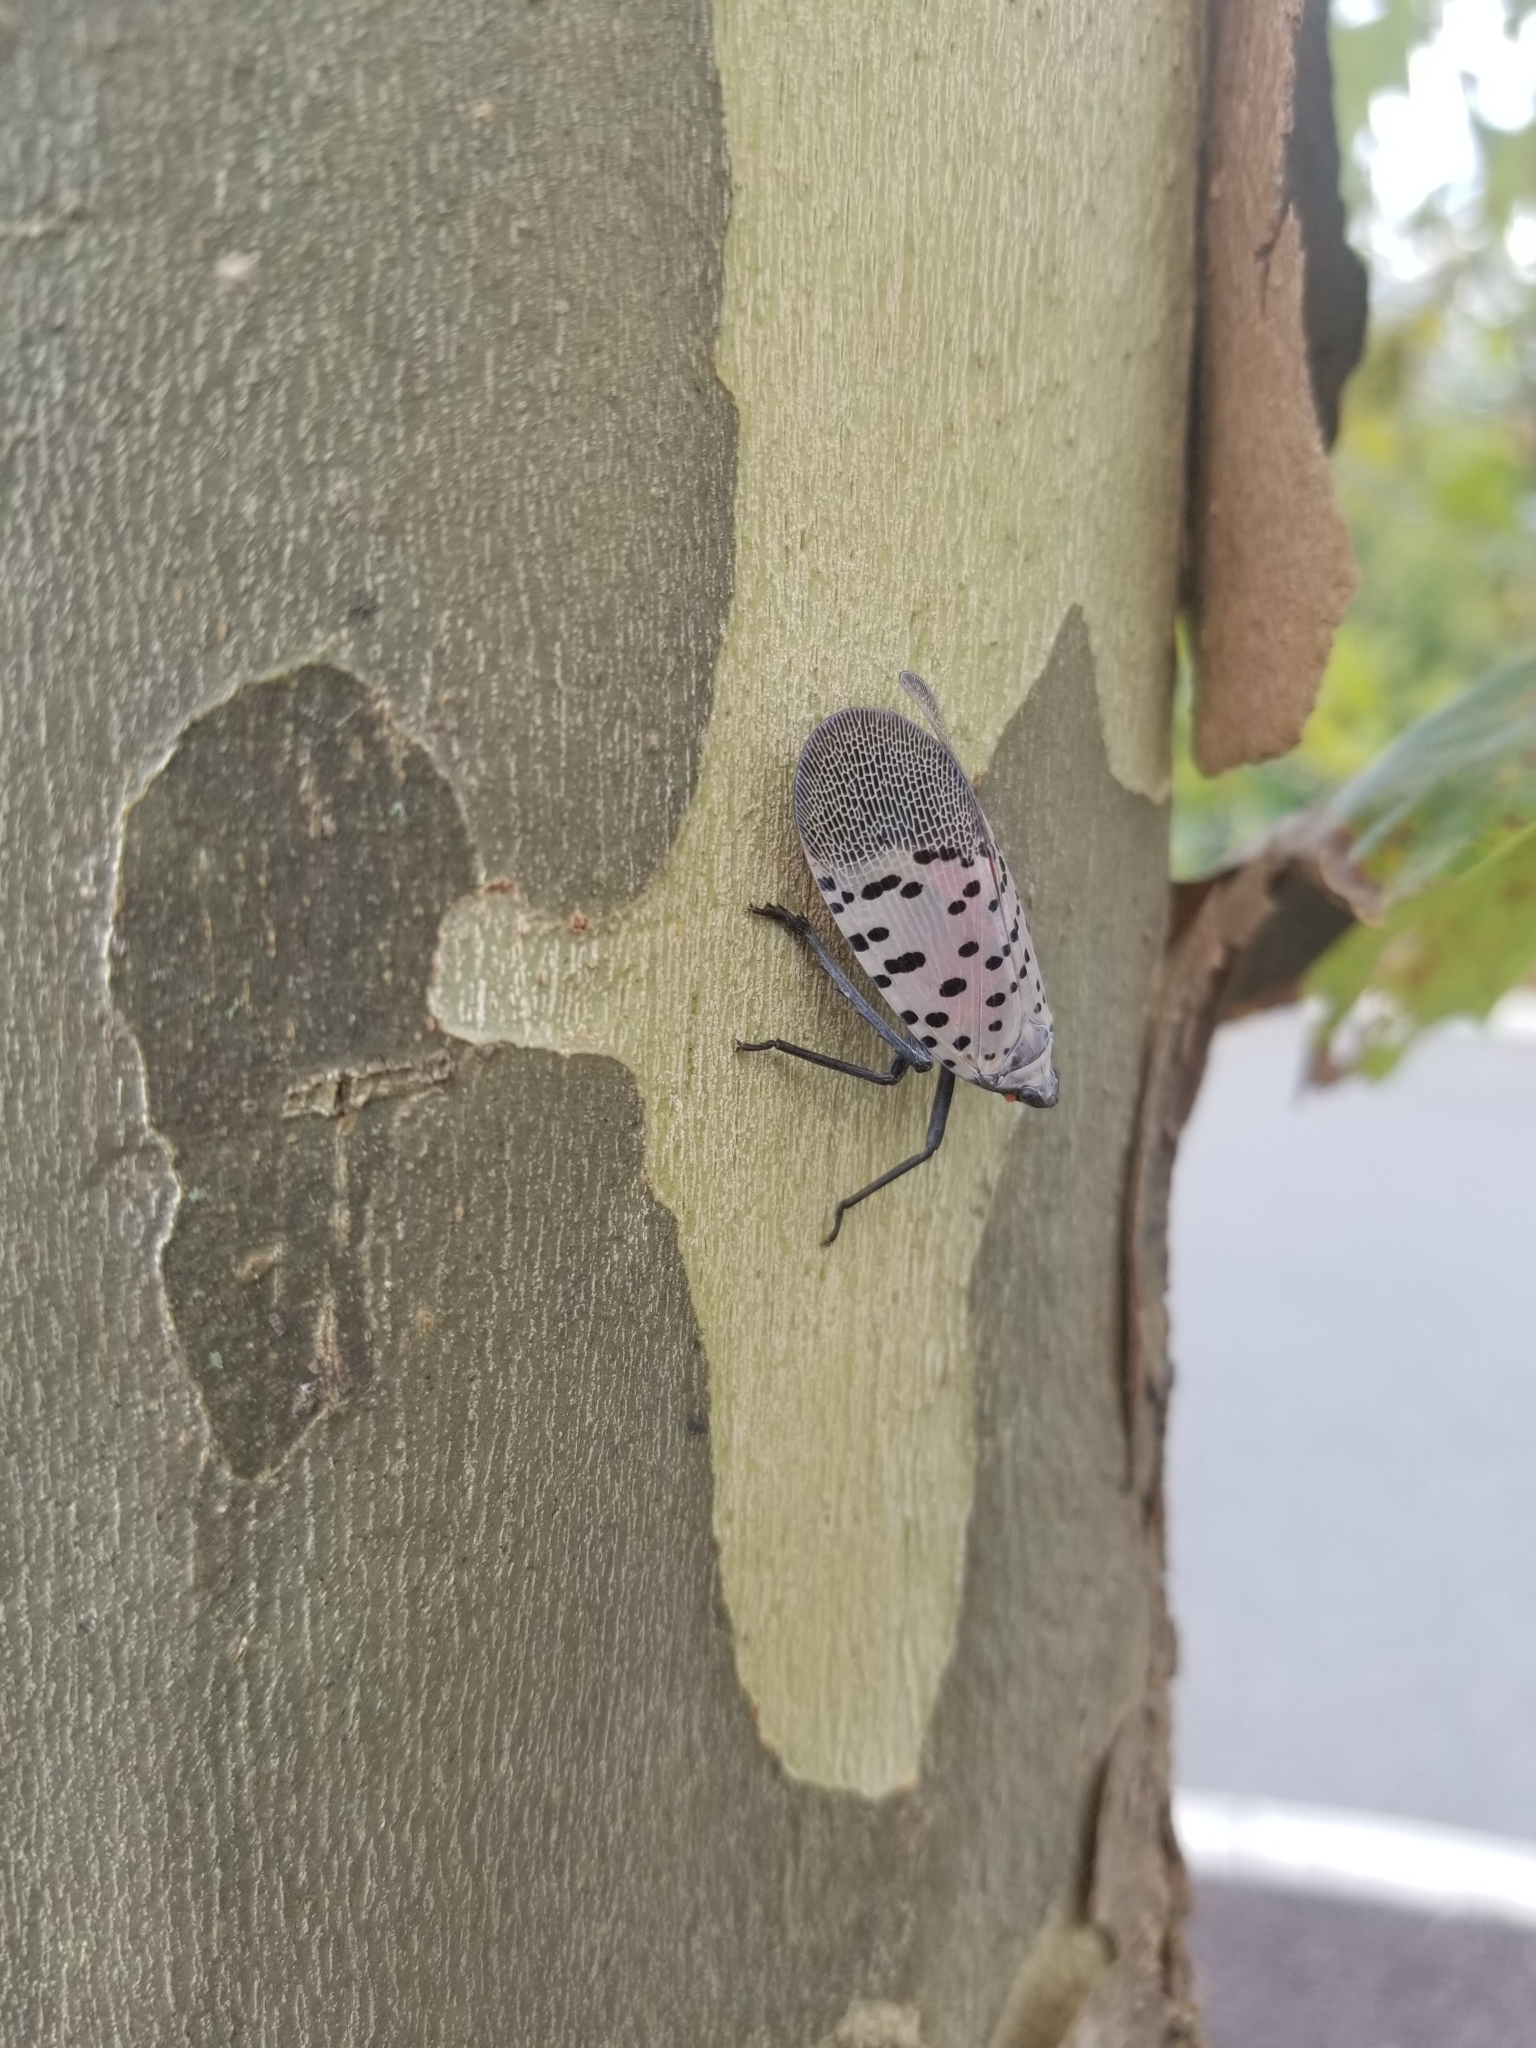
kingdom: Animalia
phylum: Arthropoda
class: Insecta
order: Hemiptera
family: Fulgoridae
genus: Lycorma
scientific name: Lycorma delicatula
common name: Spotted lanternfly
